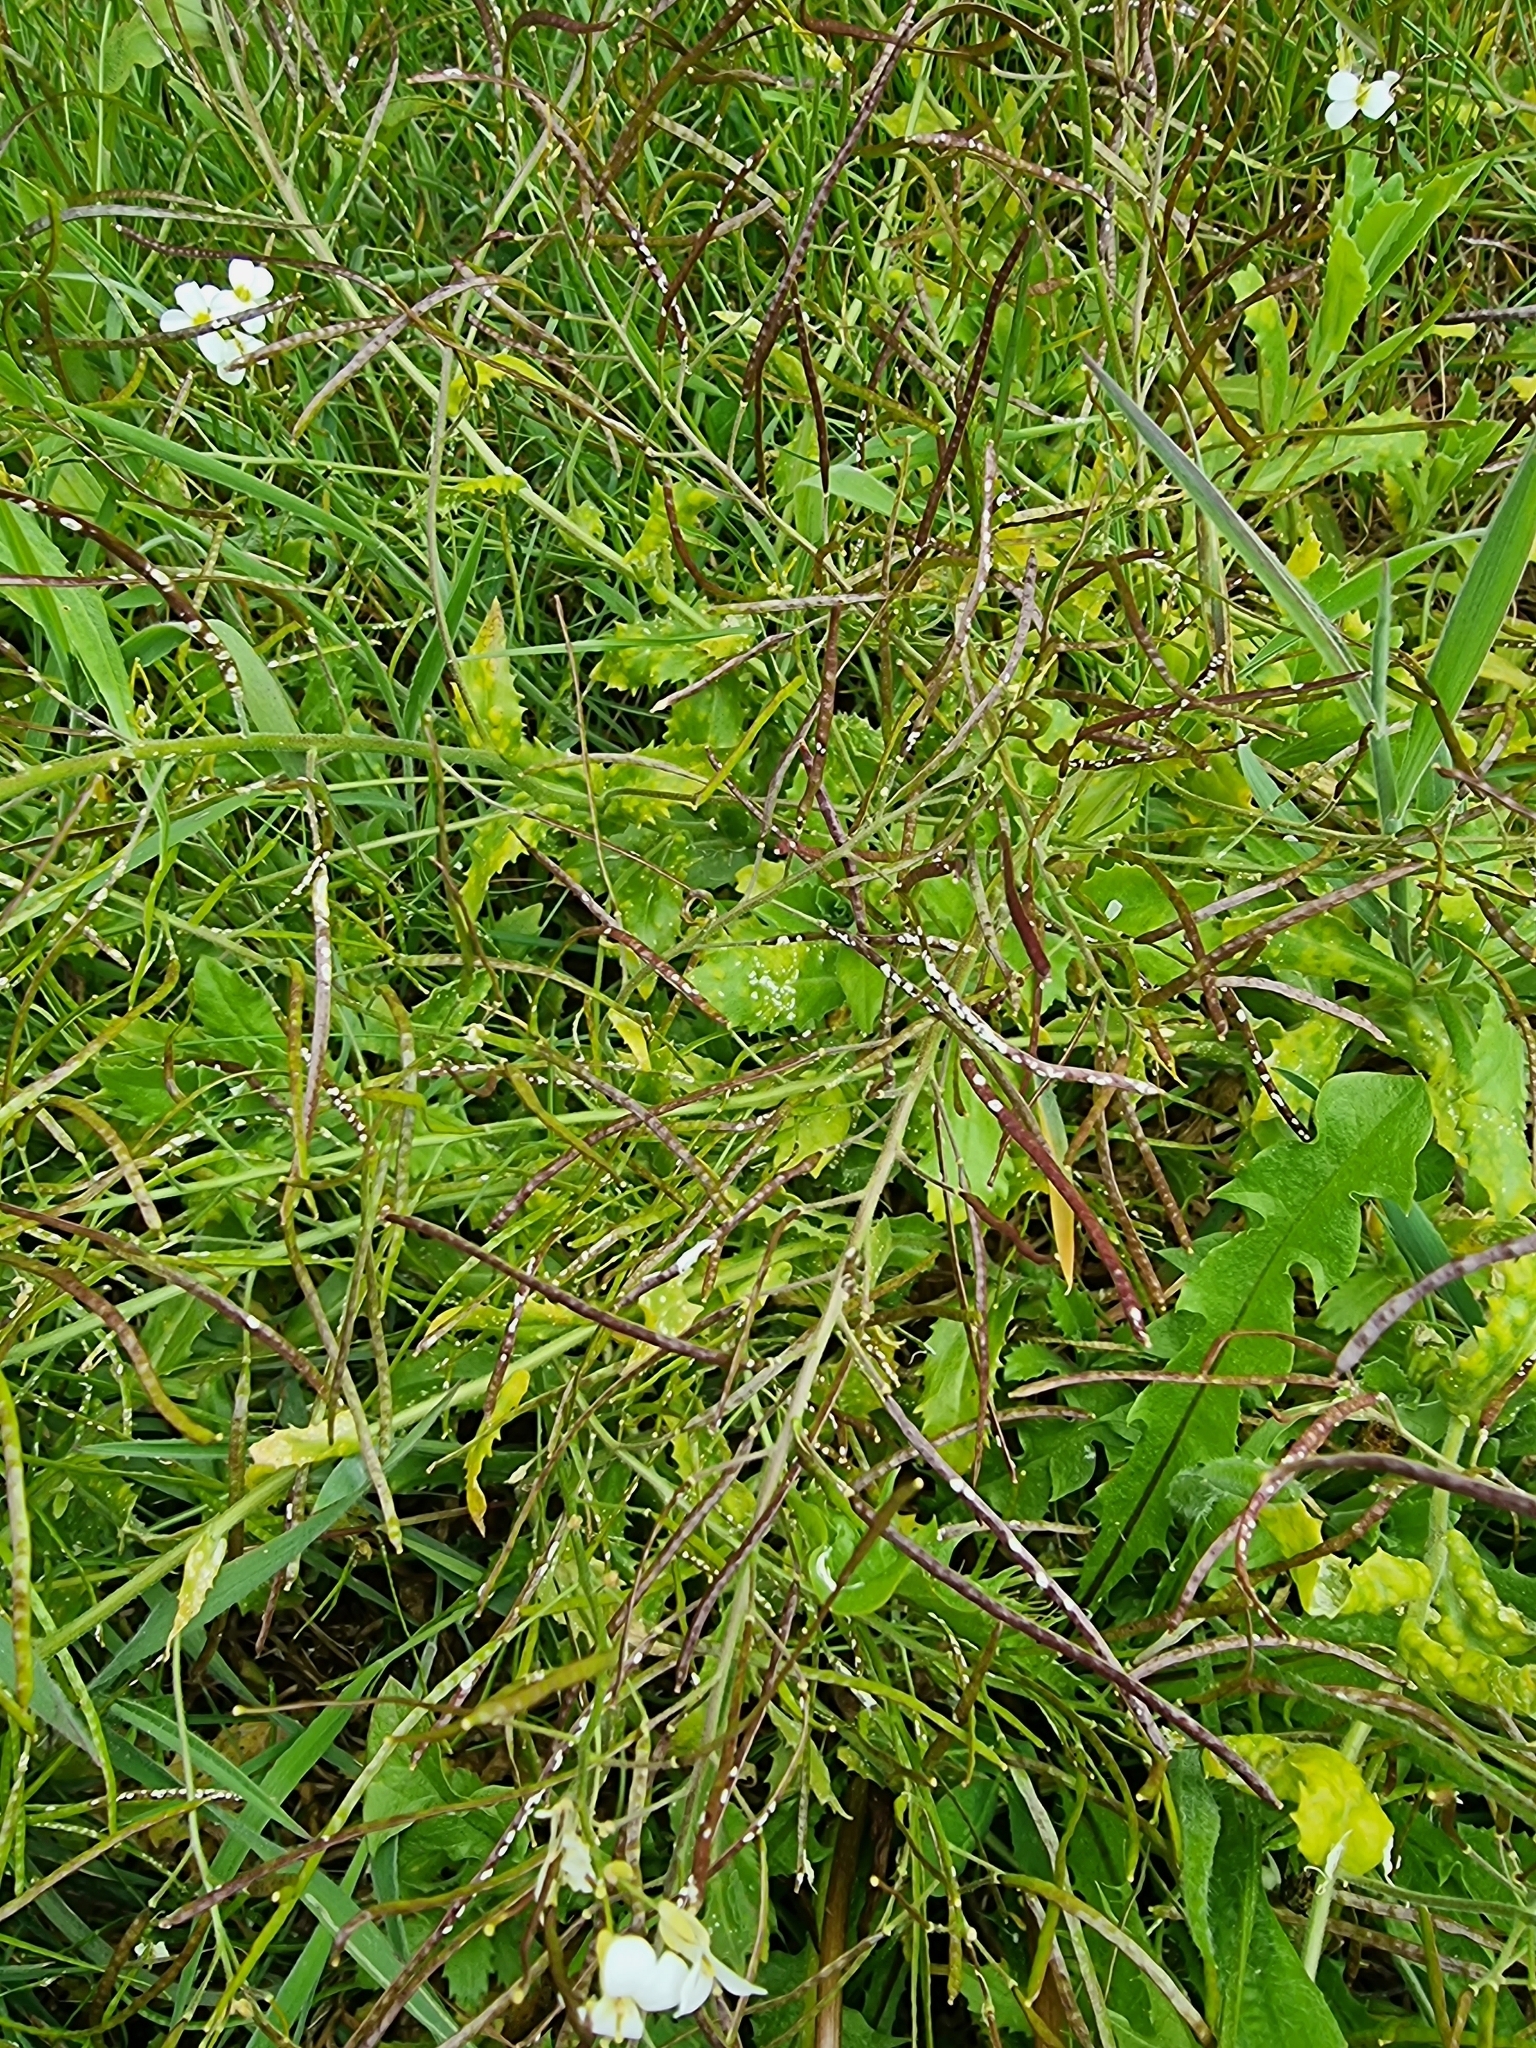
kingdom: Plantae
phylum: Tracheophyta
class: Magnoliopsida
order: Brassicales
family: Brassicaceae
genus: Arabis
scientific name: Arabis caucasica
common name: Gray rockcress
